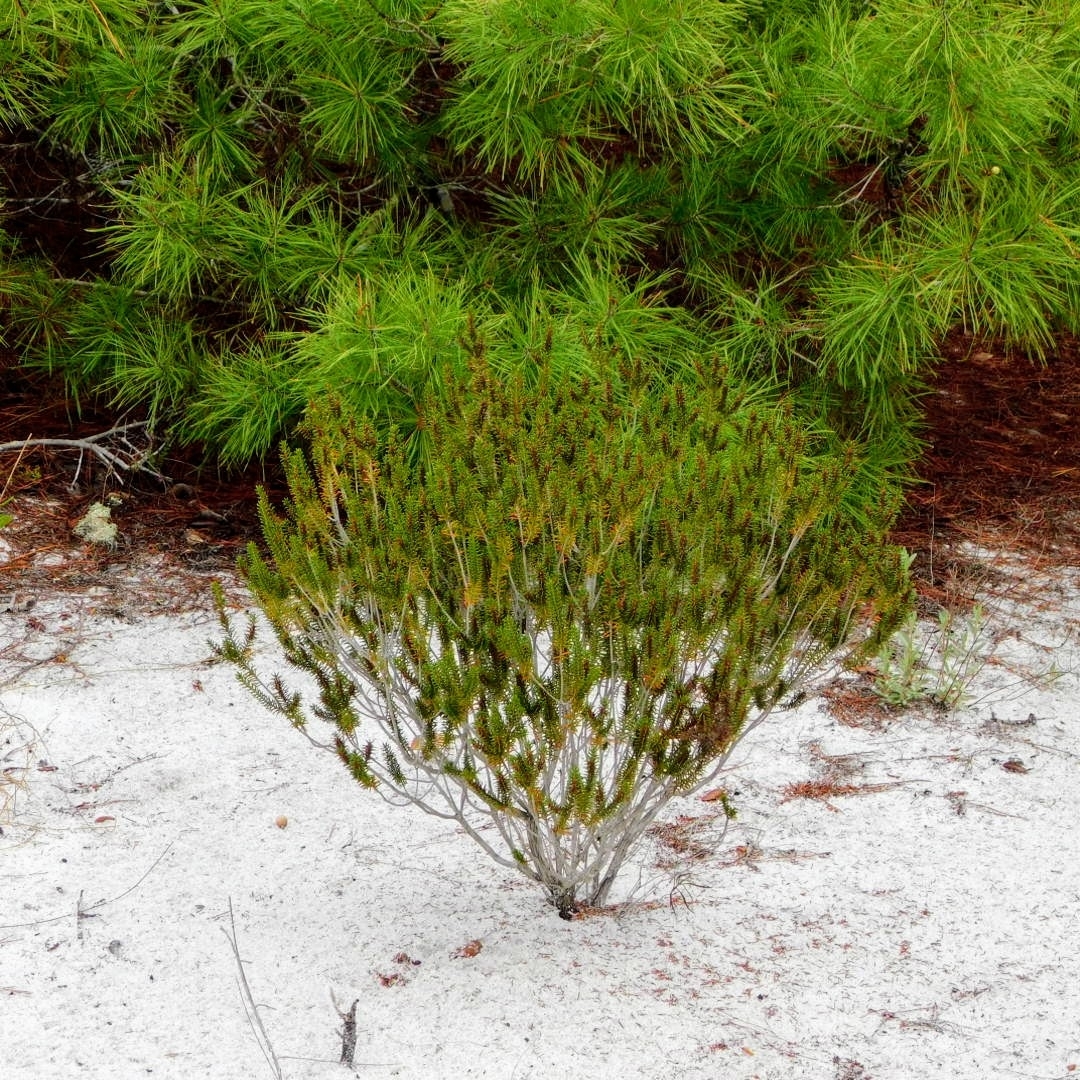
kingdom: Plantae
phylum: Tracheophyta
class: Magnoliopsida
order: Ericales
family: Ericaceae
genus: Ceratiola
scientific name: Ceratiola ericoides
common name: Sandhill-rosemary
